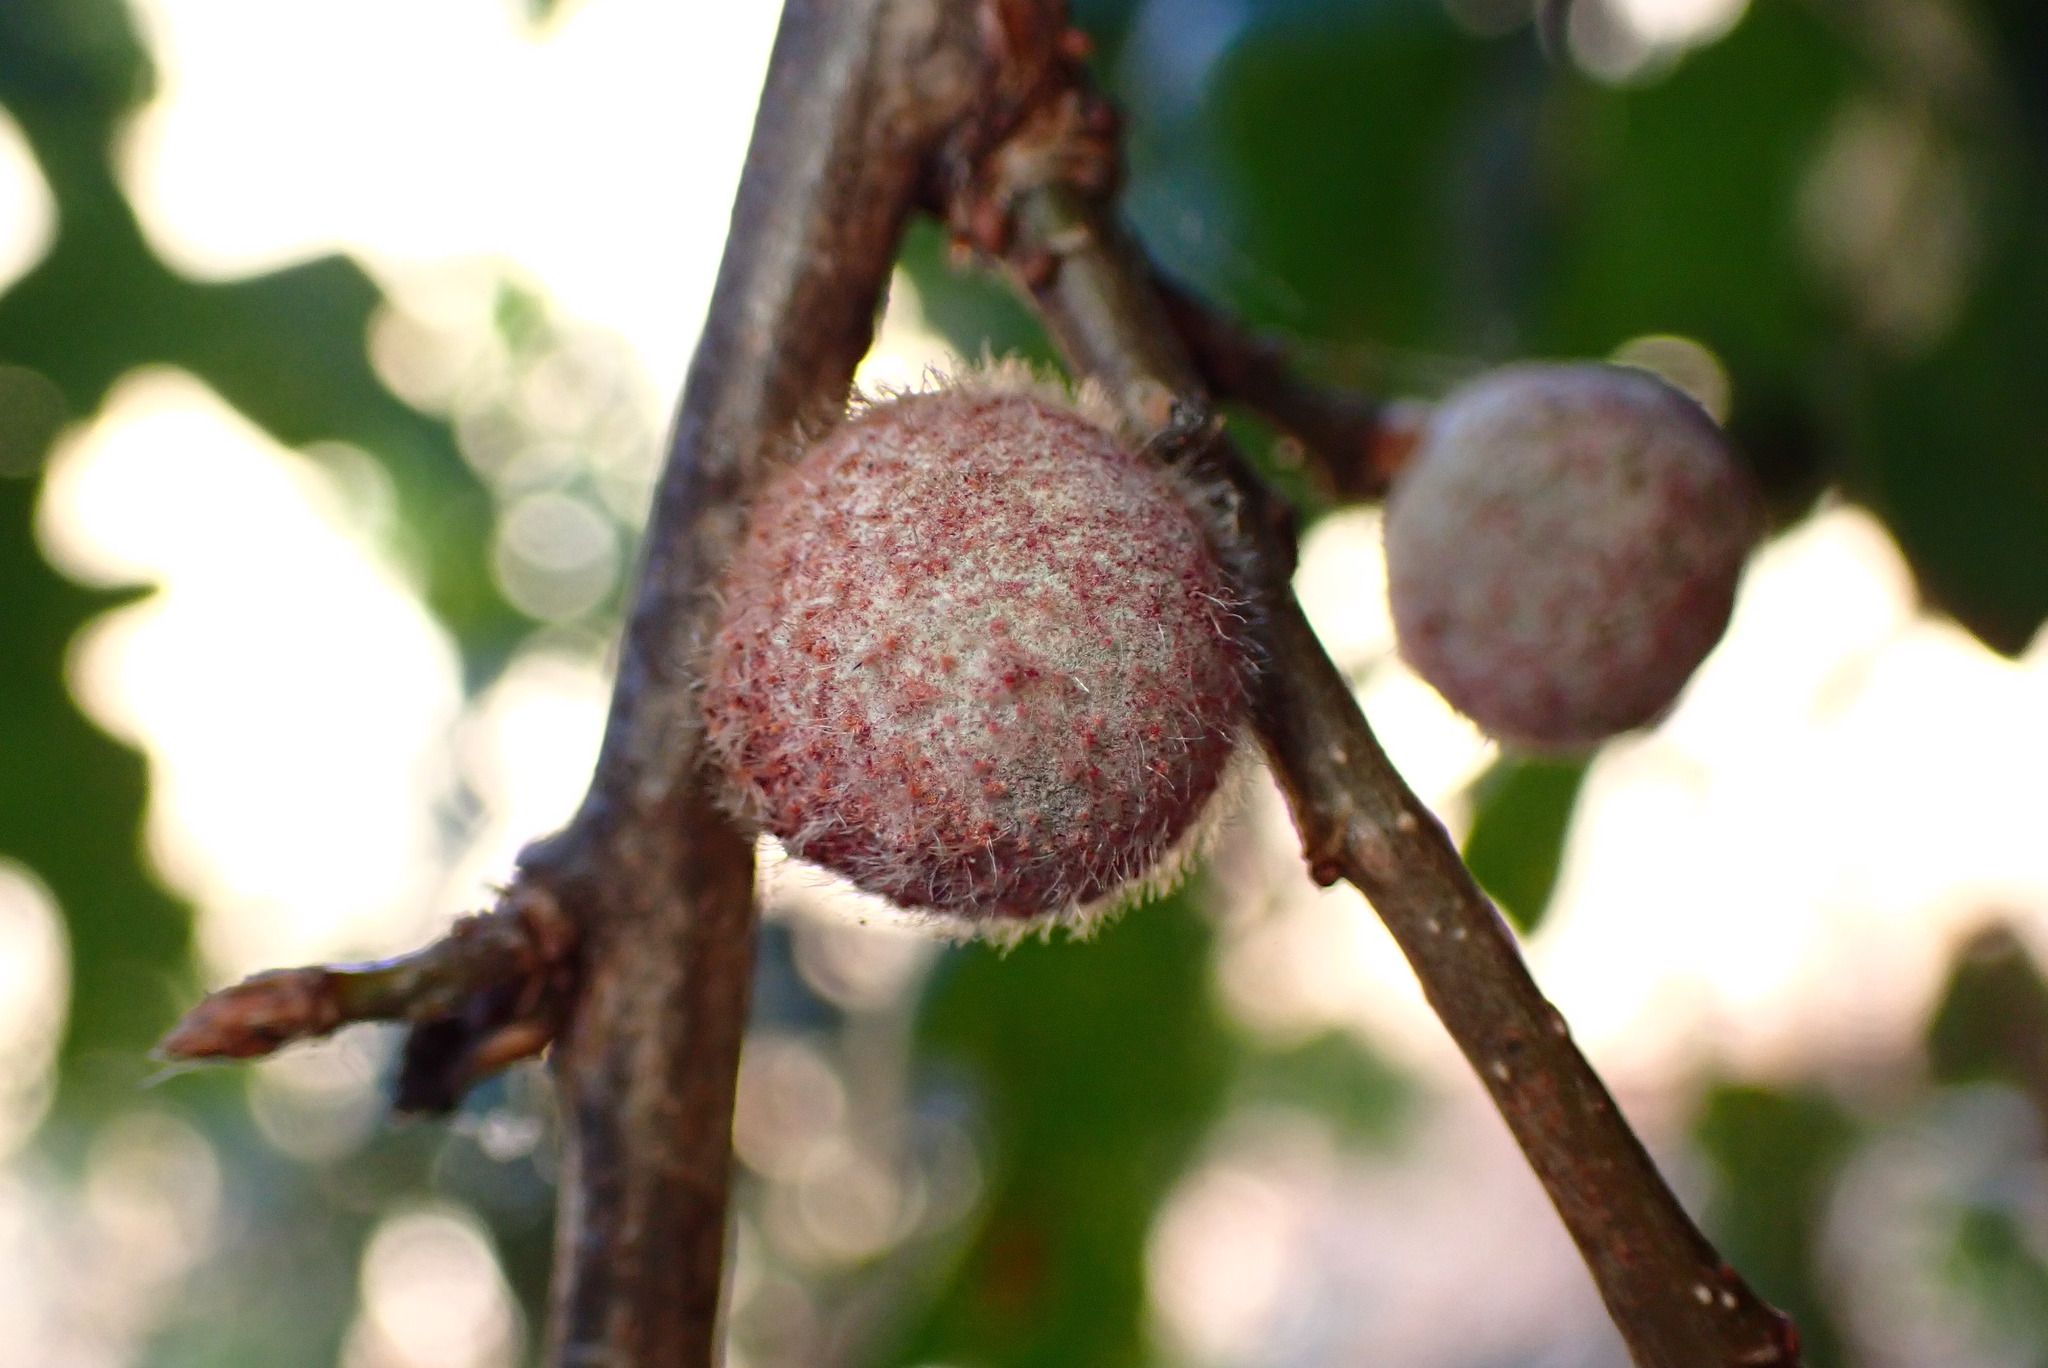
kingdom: Animalia
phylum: Arthropoda
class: Insecta
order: Hymenoptera
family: Cynipidae
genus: Burnettweldia
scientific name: Burnettweldia
